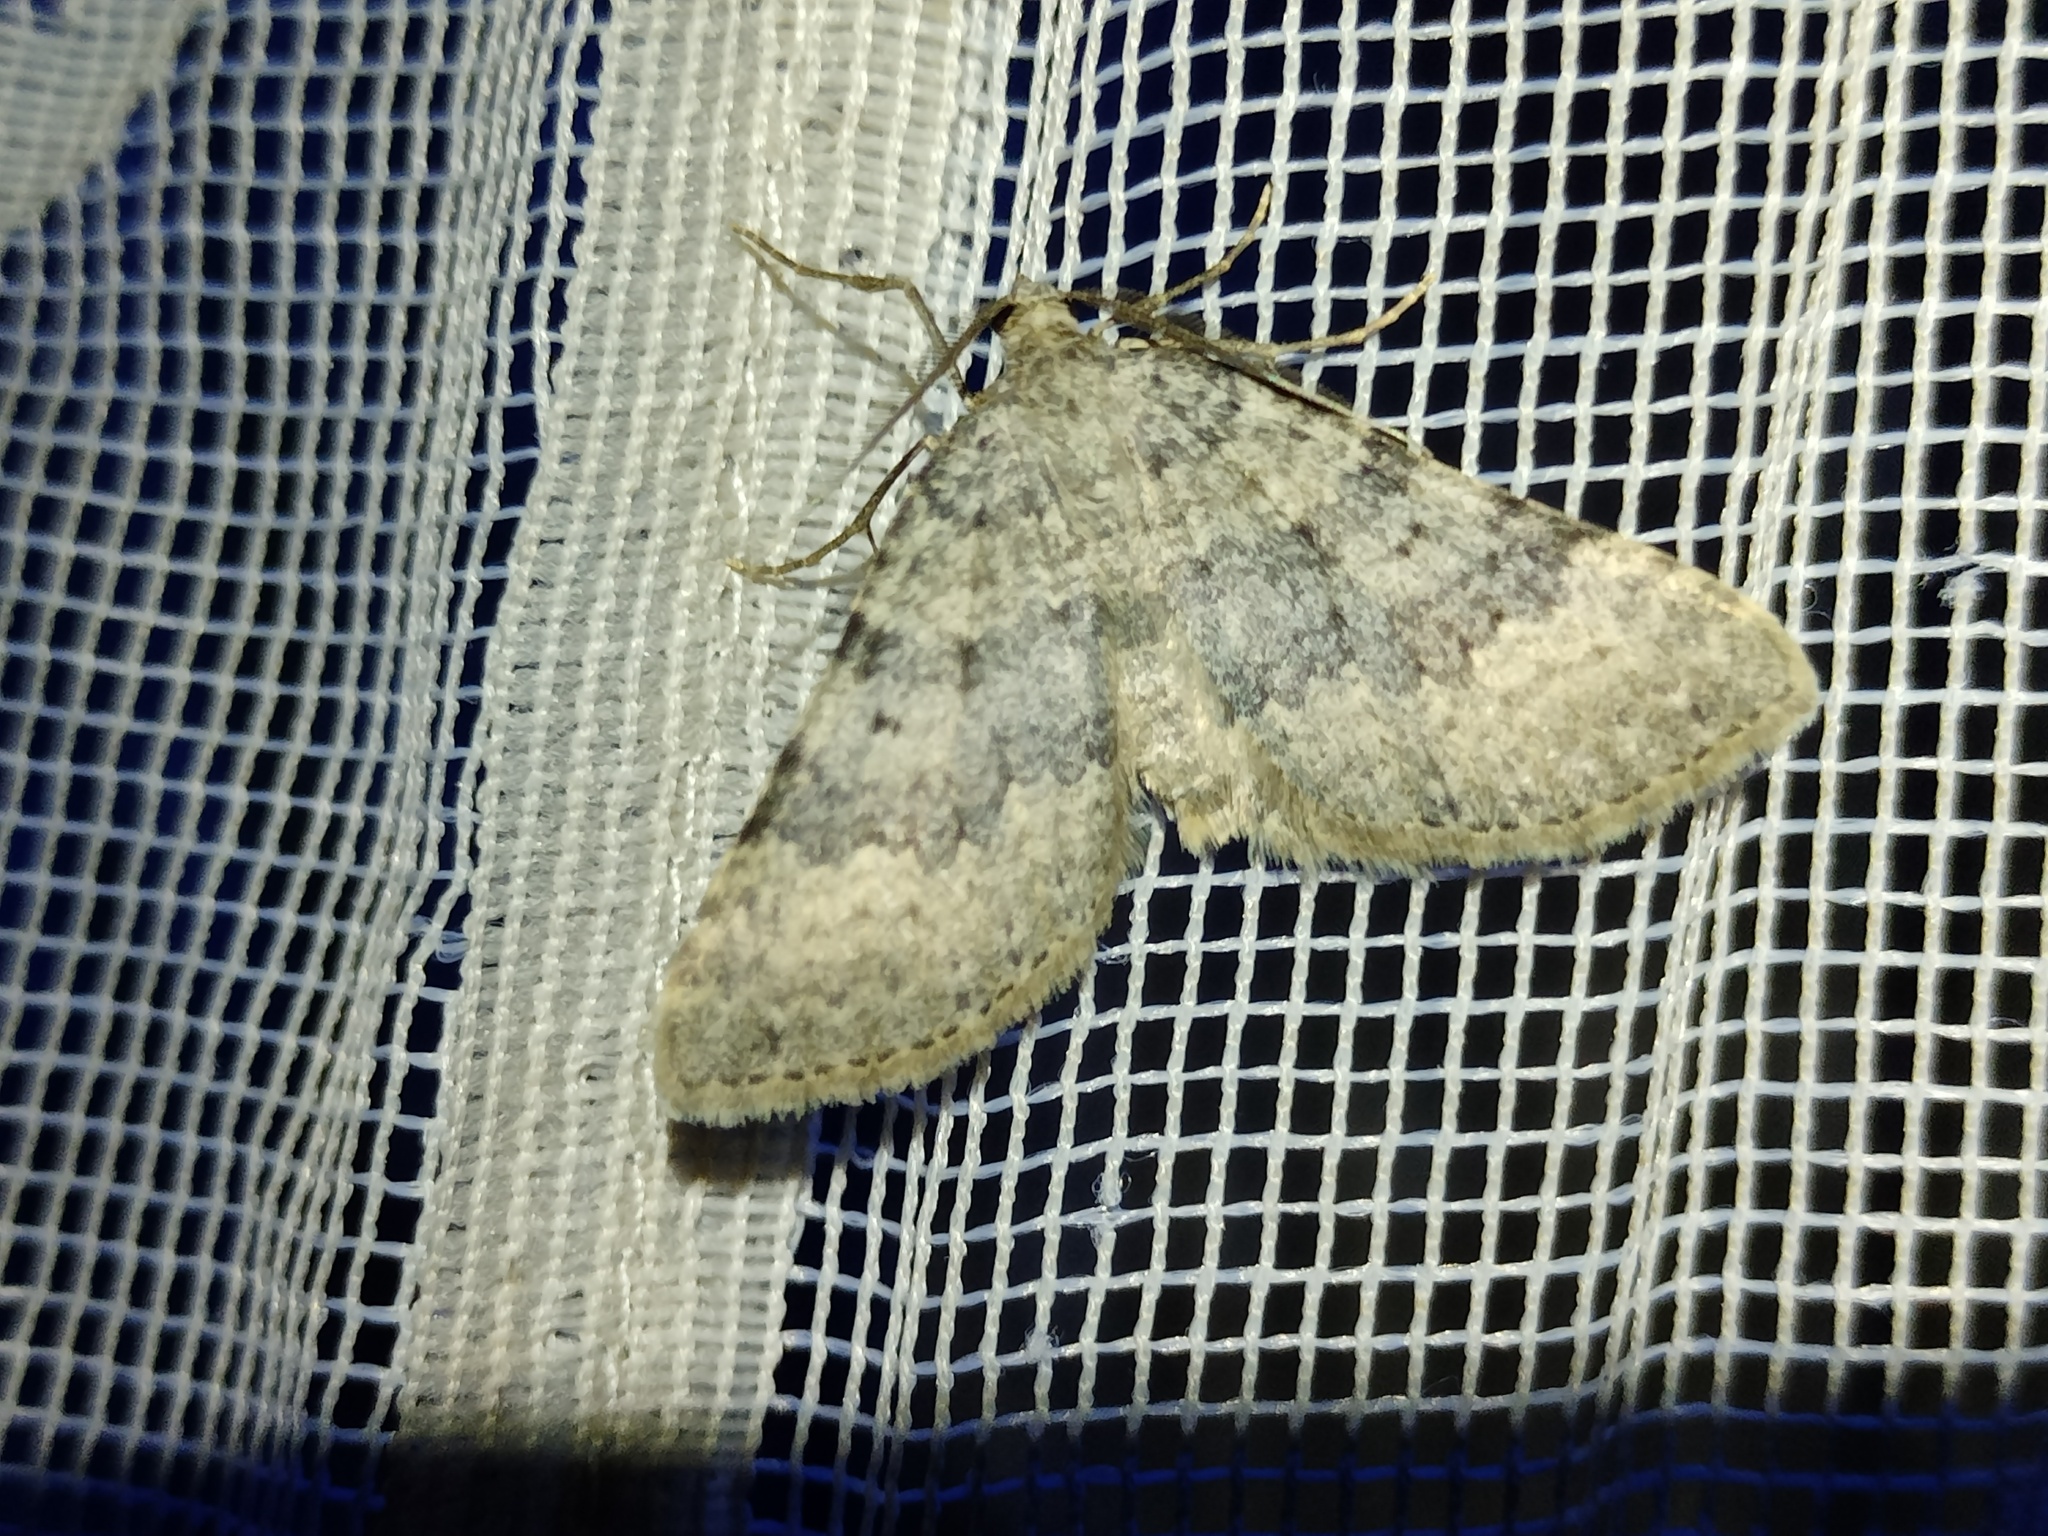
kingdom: Animalia
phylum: Arthropoda
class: Insecta
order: Lepidoptera
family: Geometridae
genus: Scotopteryx
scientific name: Scotopteryx octodurensis
